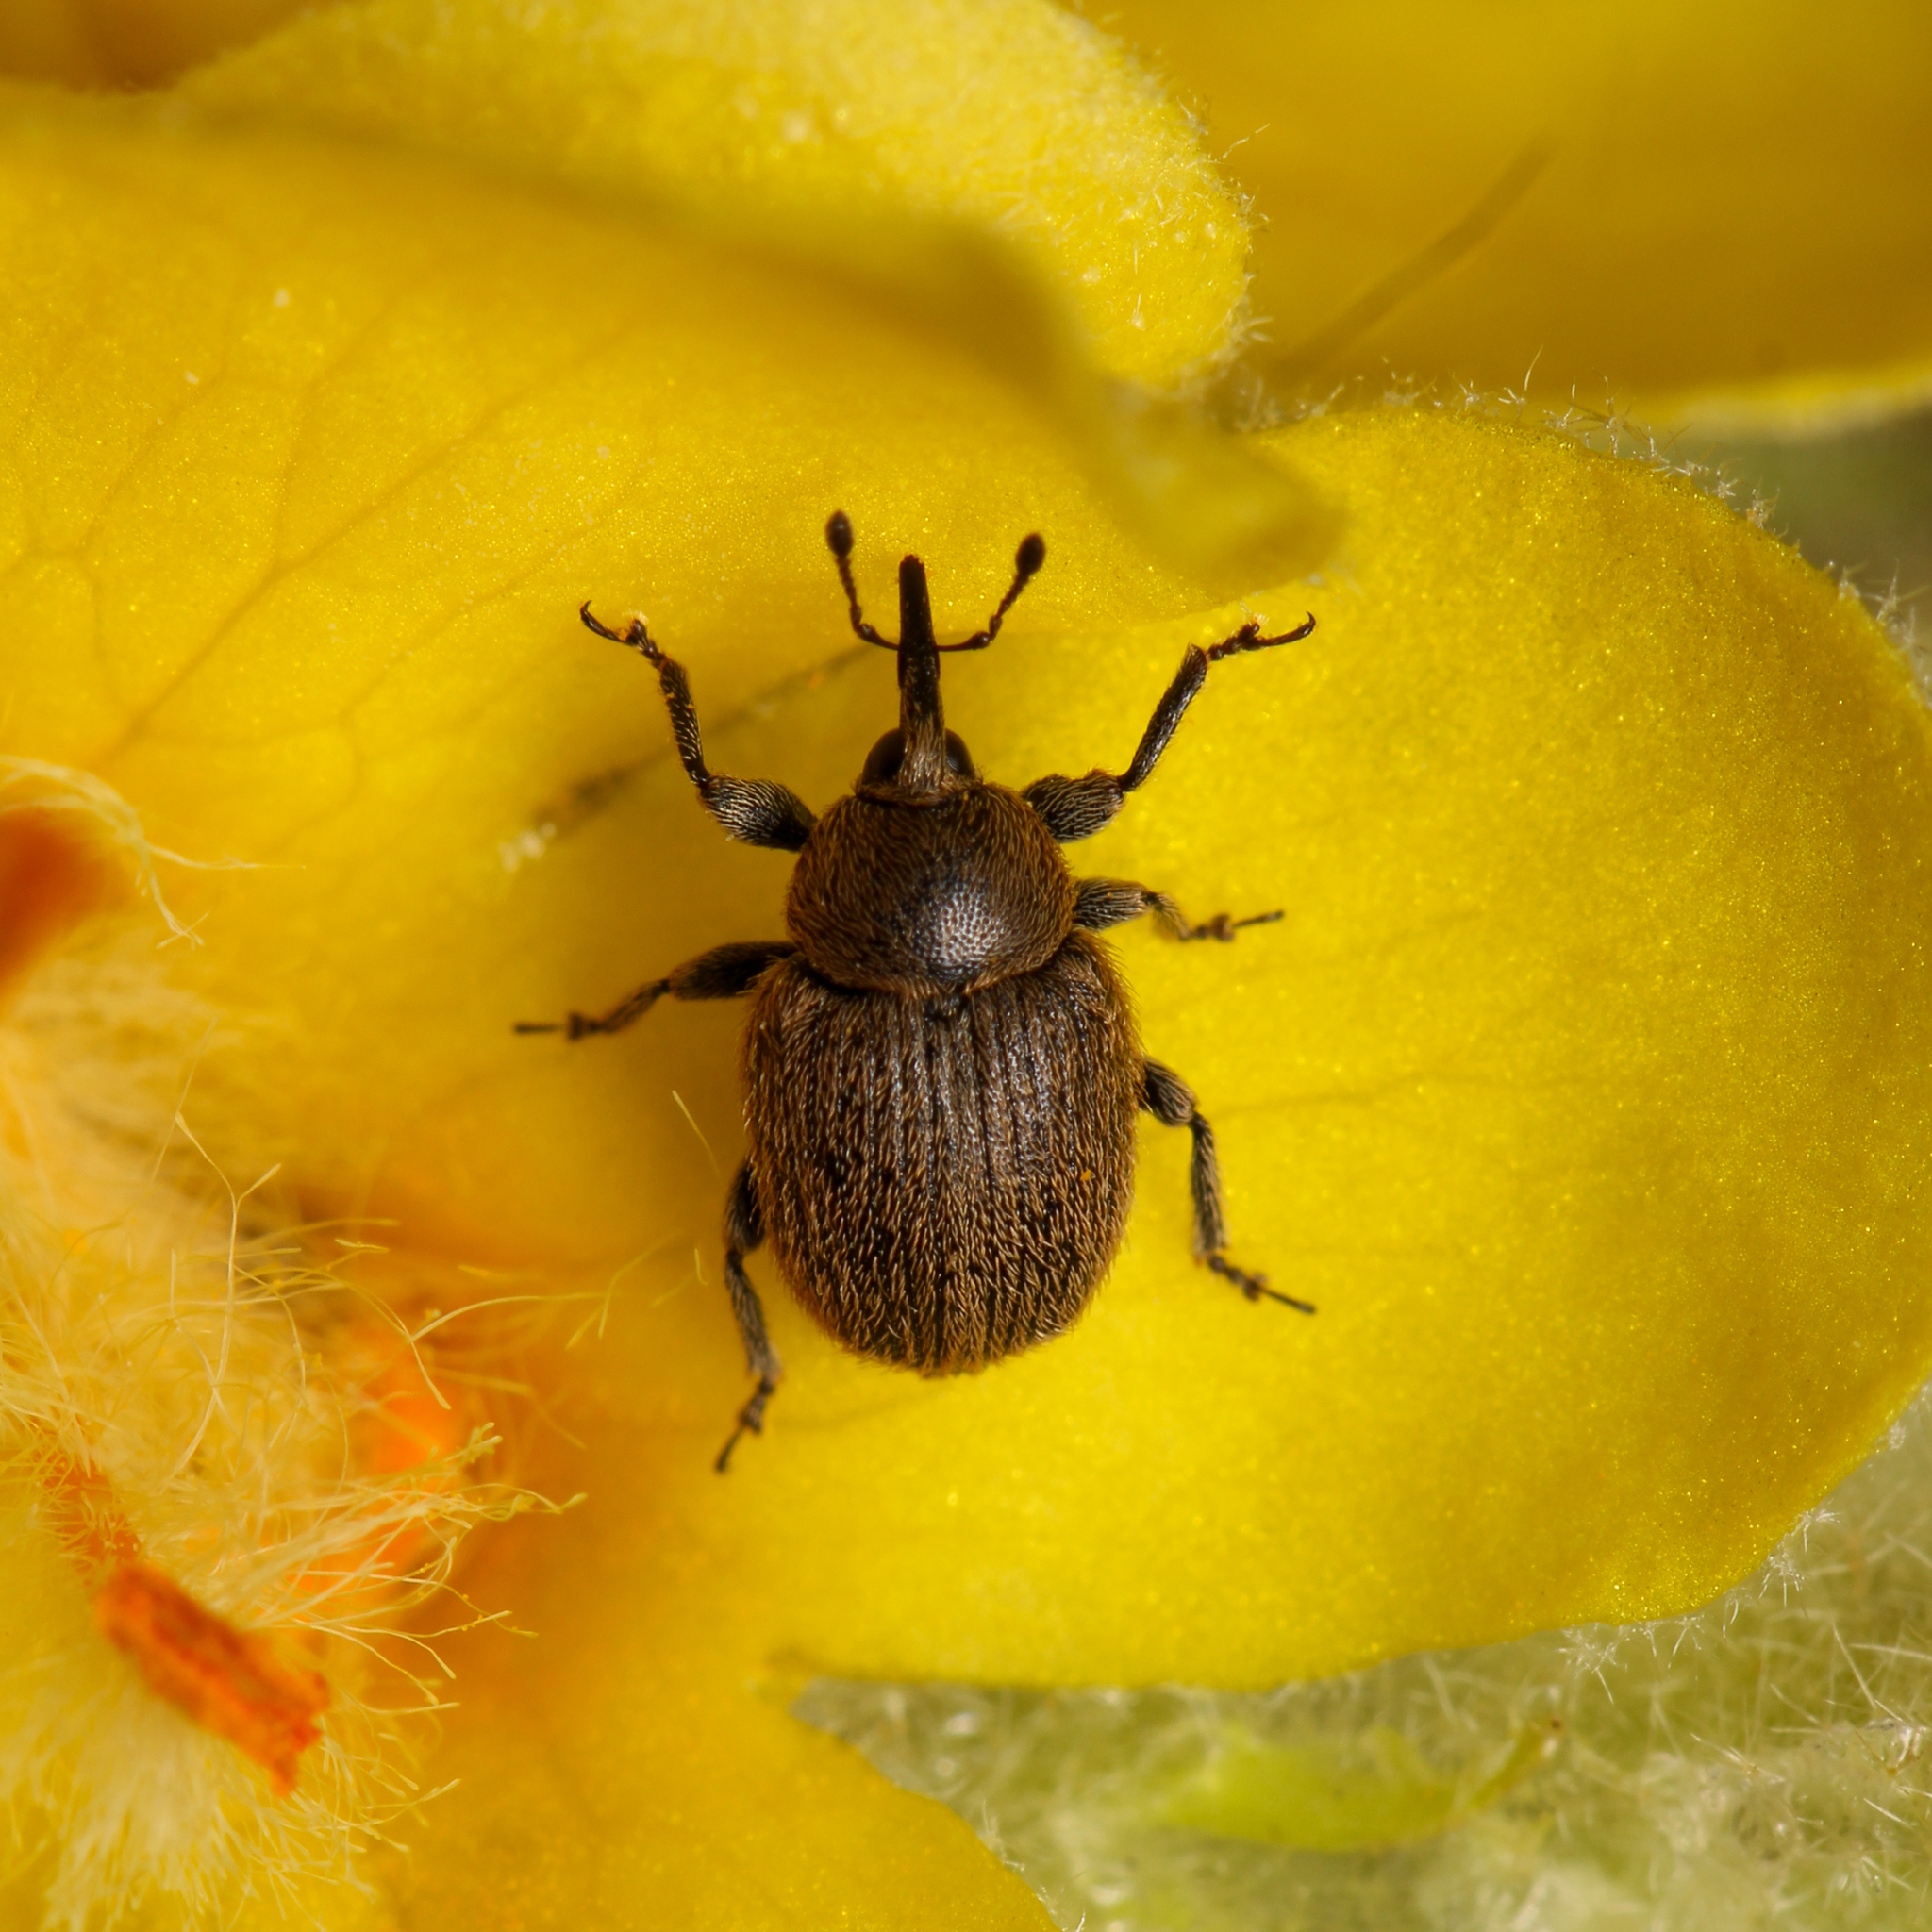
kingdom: Animalia
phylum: Arthropoda
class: Insecta
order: Coleoptera
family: Curculionidae
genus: Rhinusa
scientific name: Rhinusa tetra
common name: Weevil
